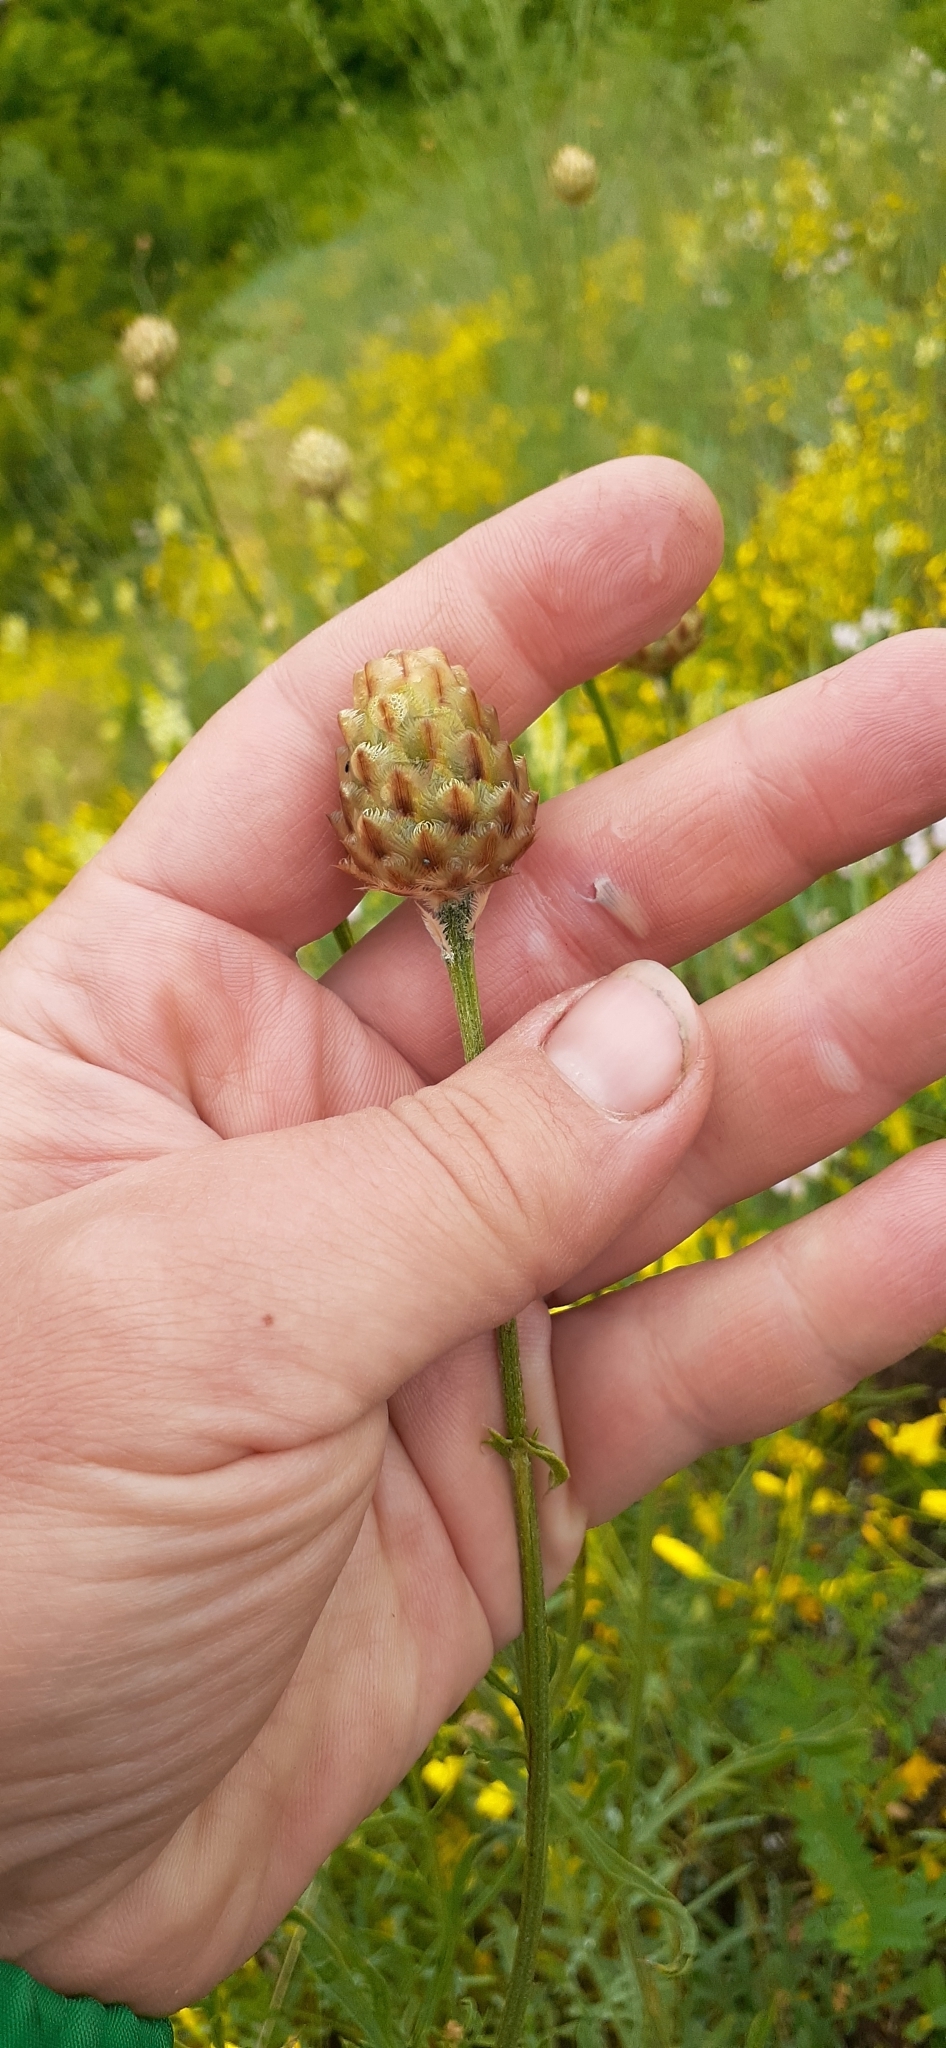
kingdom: Plantae
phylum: Tracheophyta
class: Magnoliopsida
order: Asterales
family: Asteraceae
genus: Centaurea
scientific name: Centaurea orientalis
